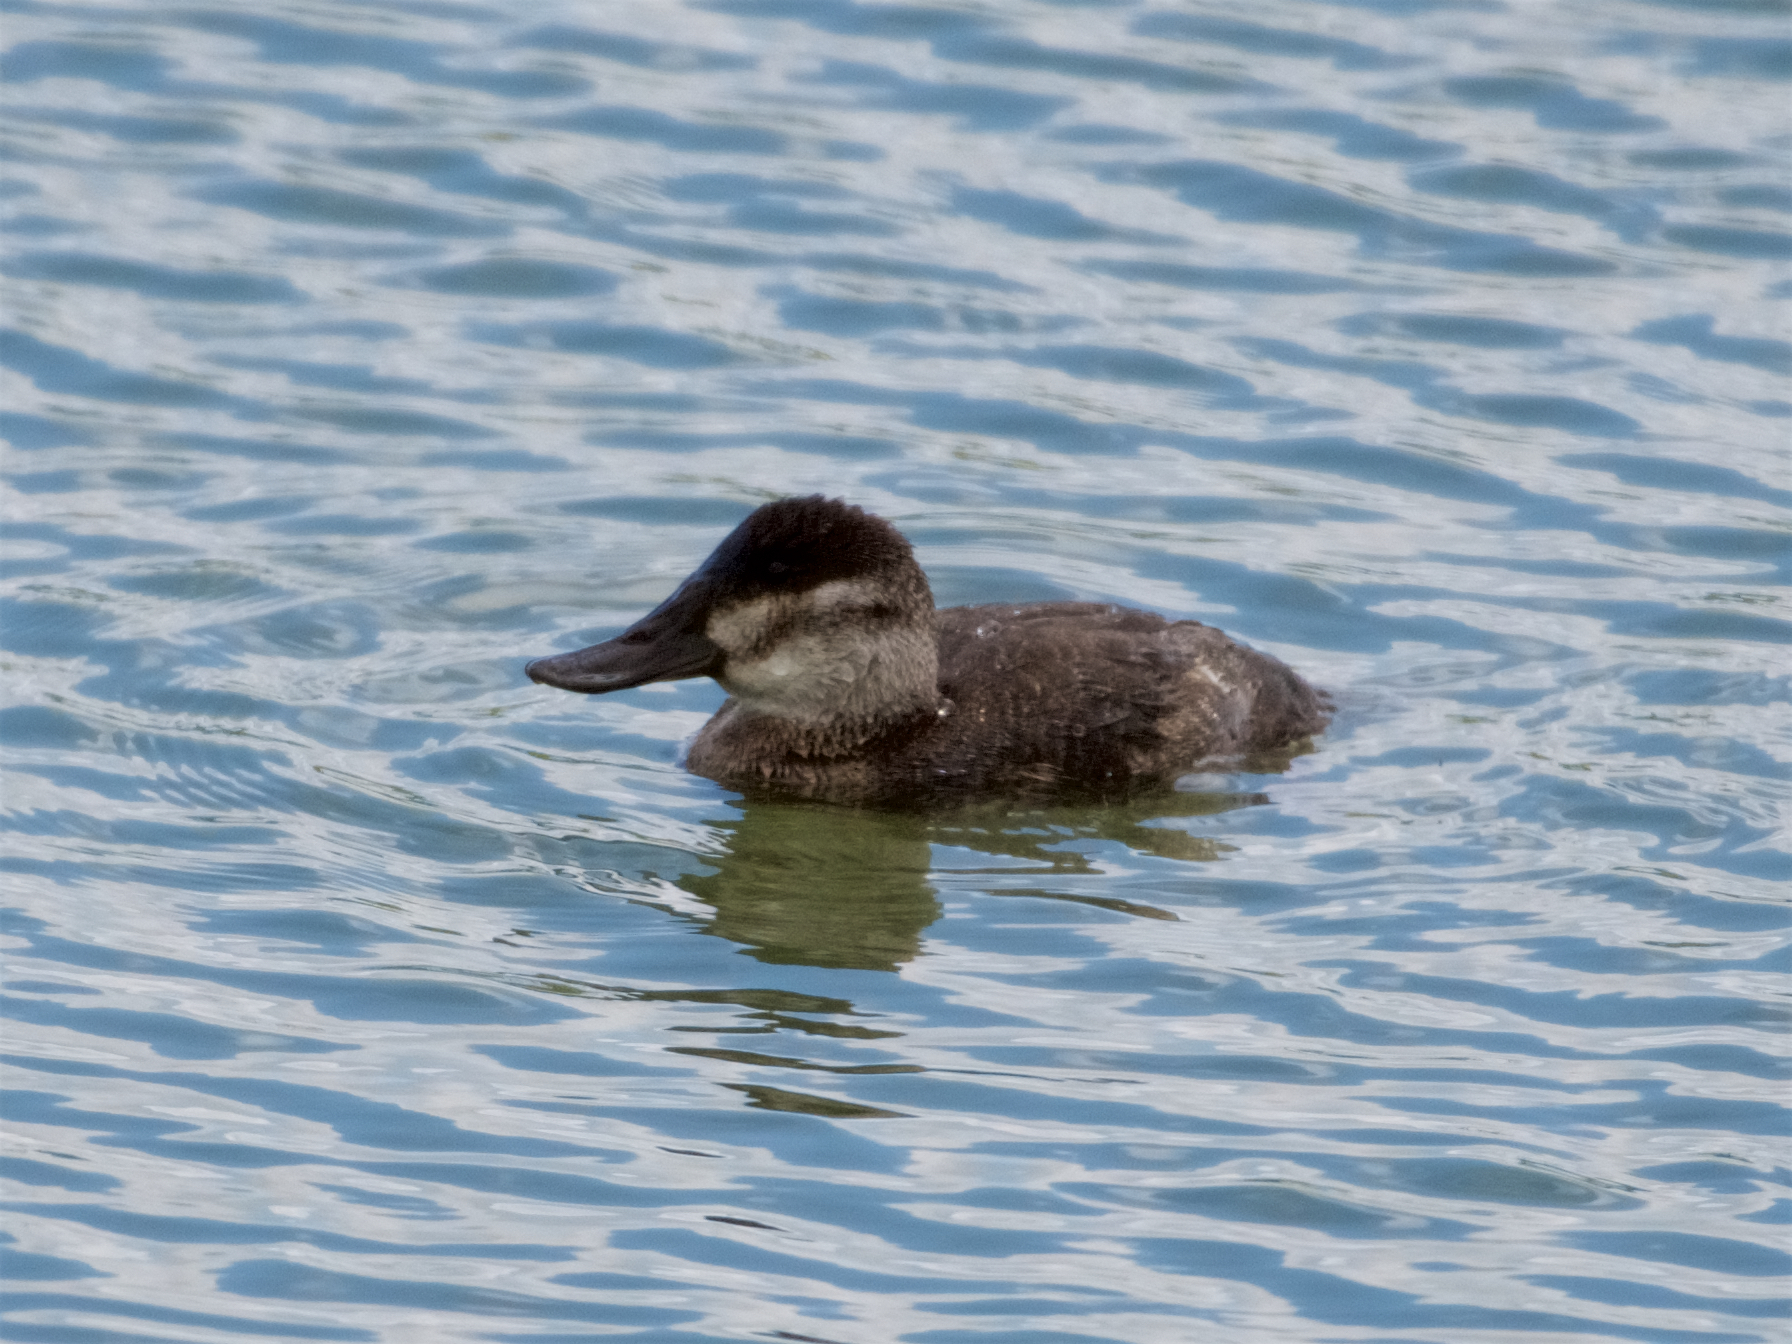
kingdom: Animalia
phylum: Chordata
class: Aves
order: Anseriformes
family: Anatidae
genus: Oxyura
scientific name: Oxyura jamaicensis
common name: Ruddy duck
